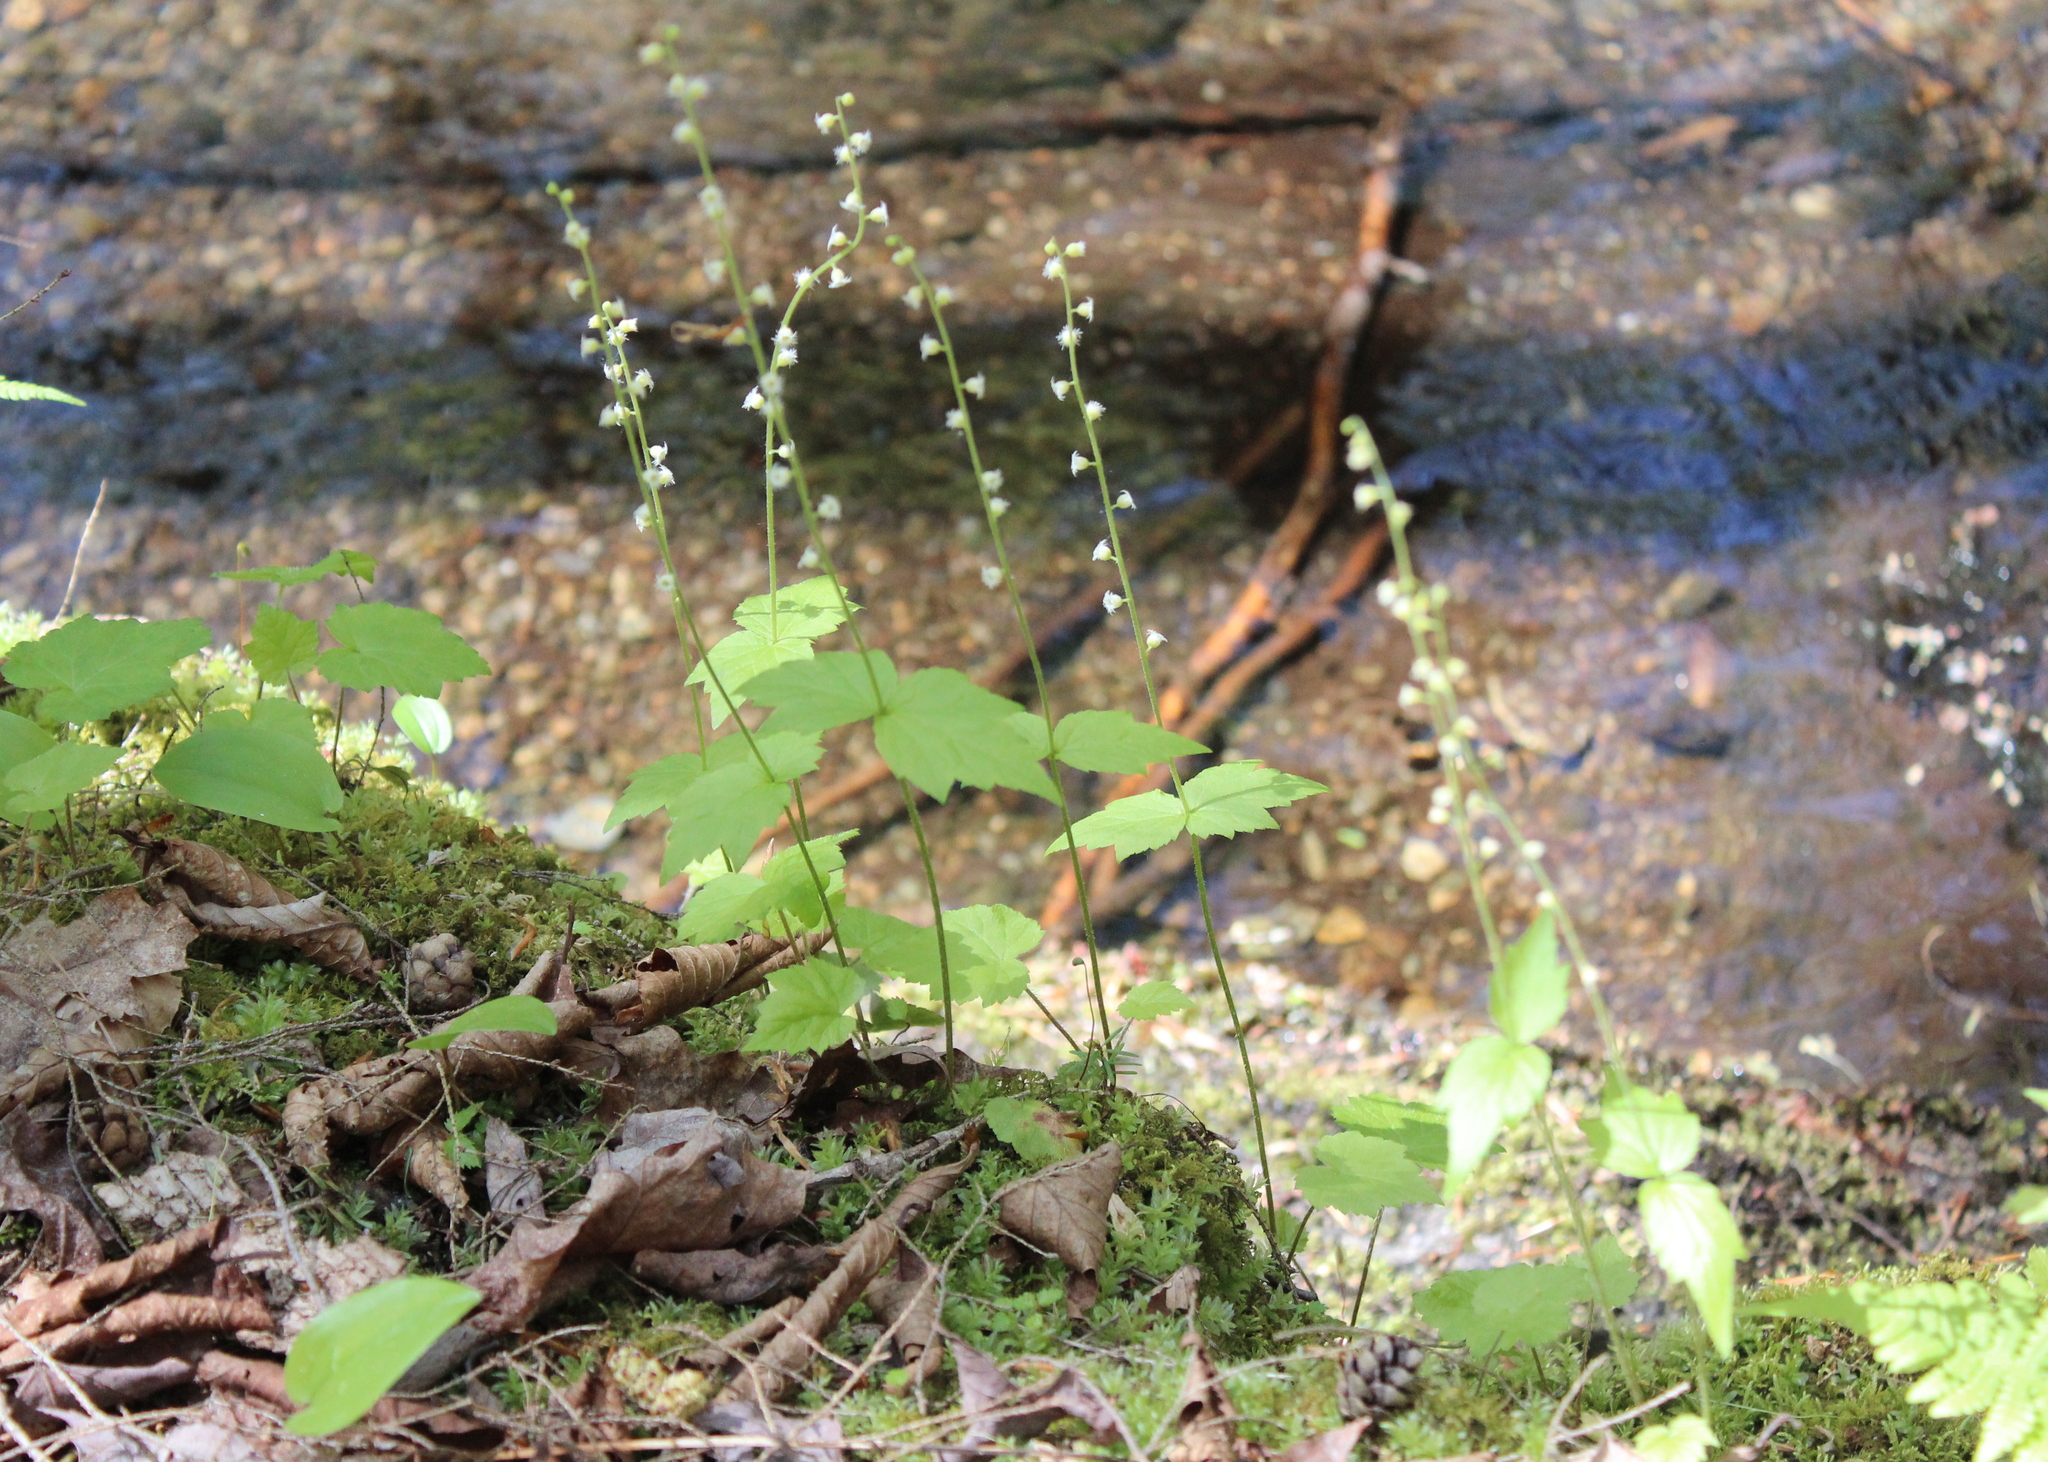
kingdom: Plantae
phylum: Tracheophyta
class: Magnoliopsida
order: Saxifragales
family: Saxifragaceae
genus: Mitella
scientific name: Mitella diphylla
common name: Coolwort
